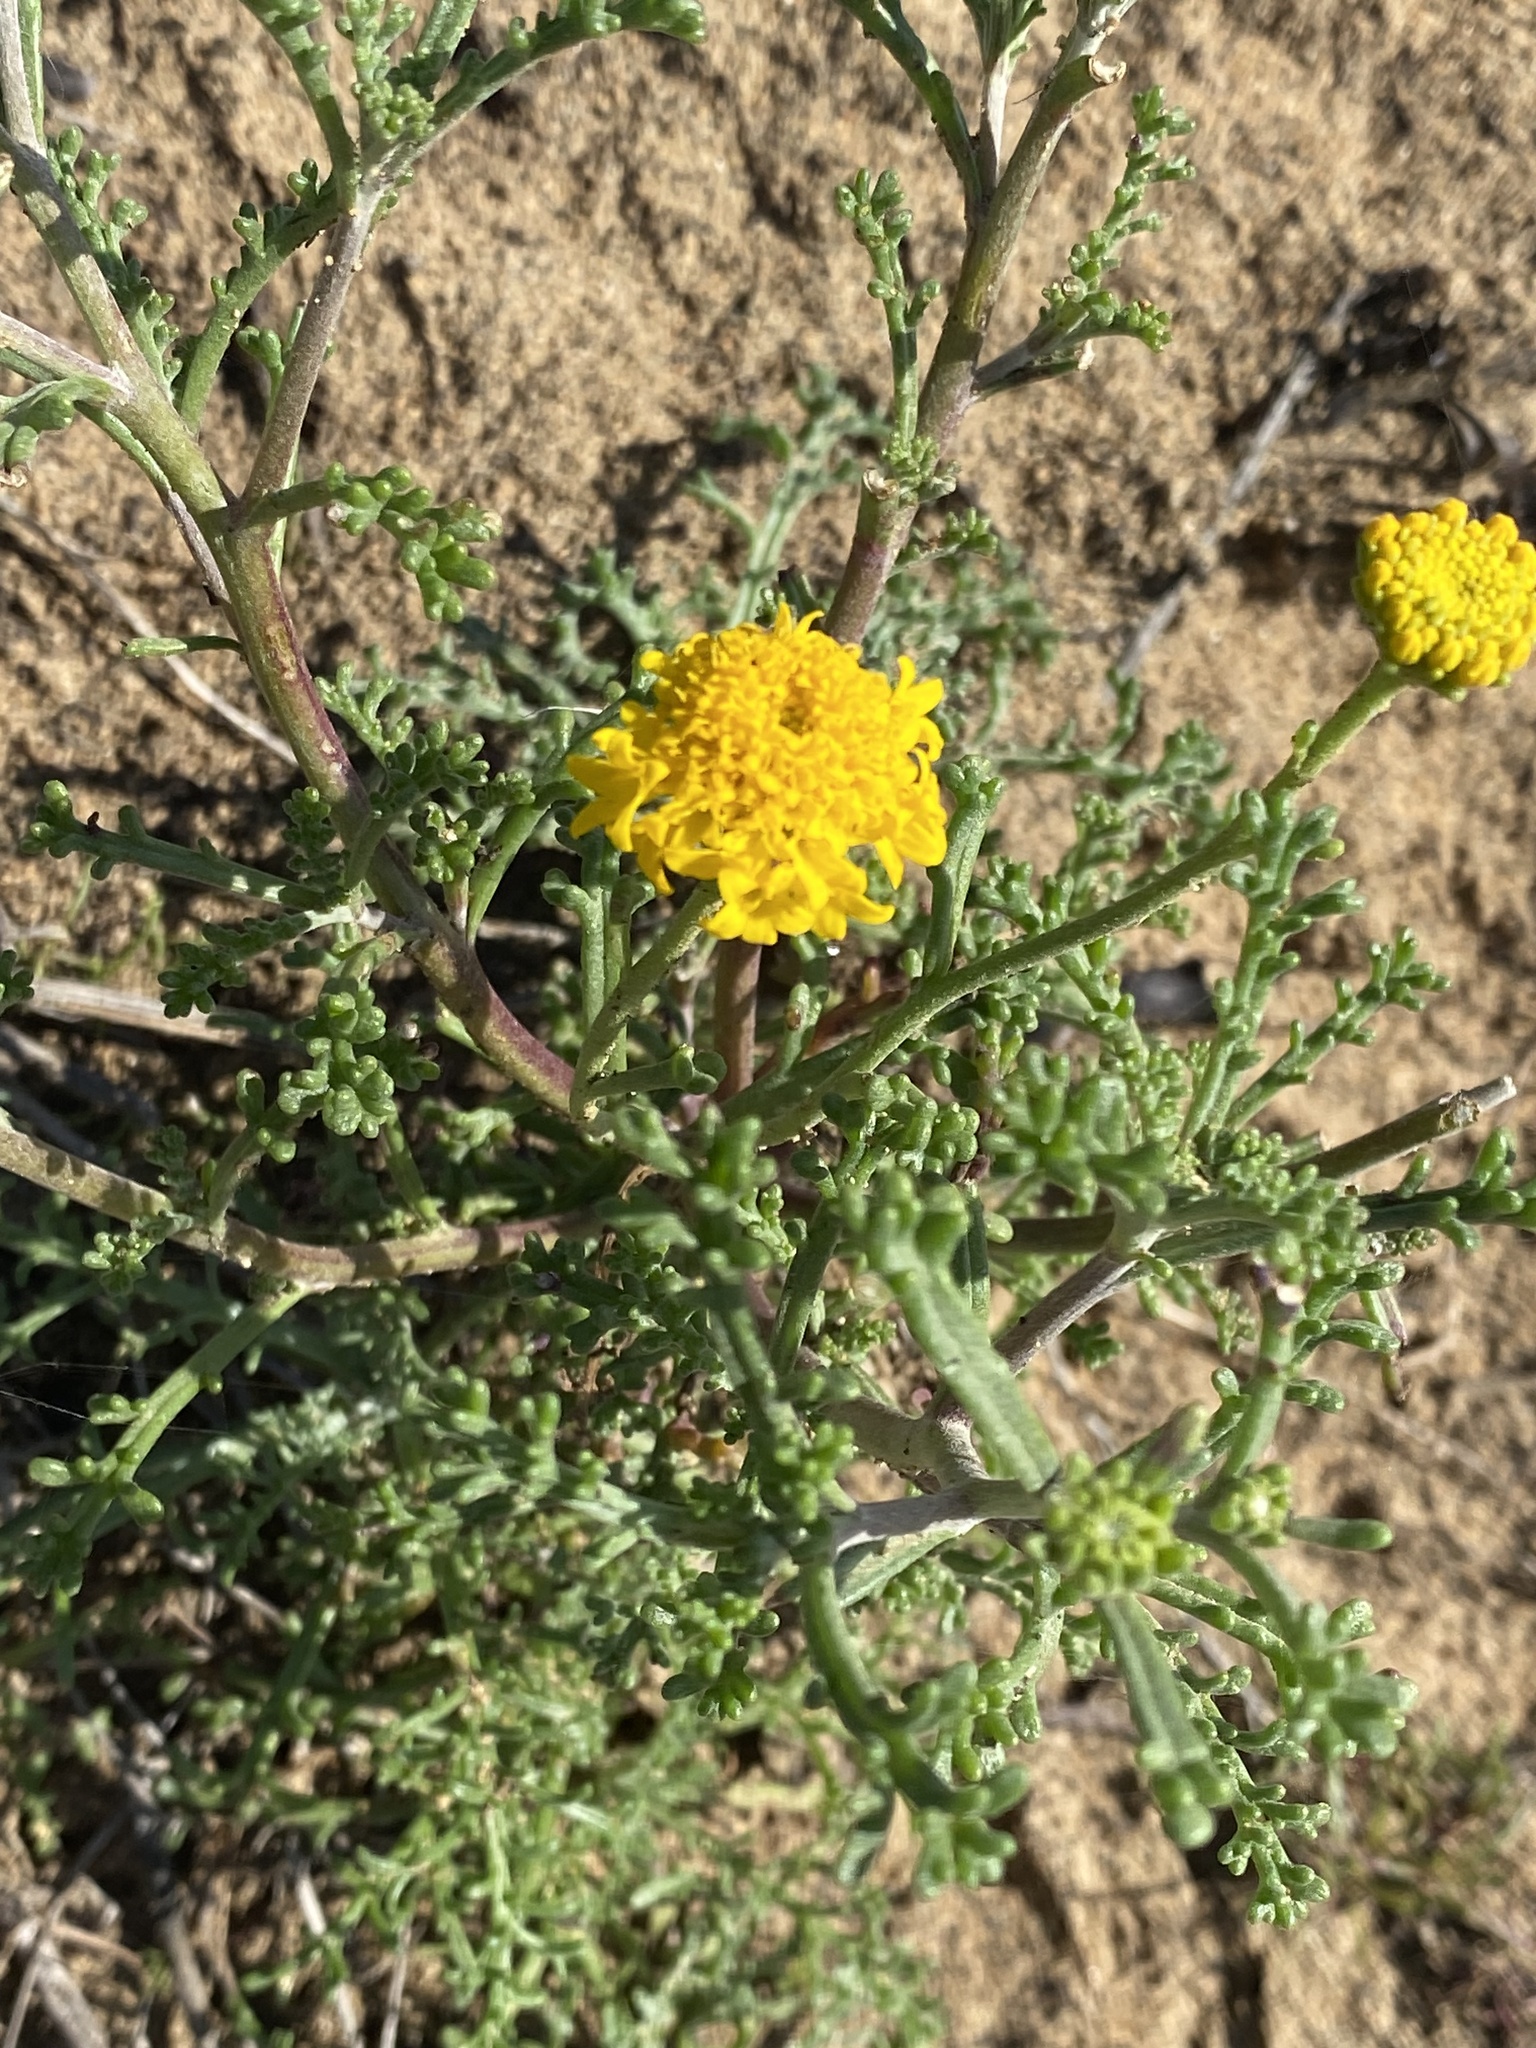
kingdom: Plantae
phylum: Tracheophyta
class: Magnoliopsida
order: Asterales
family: Asteraceae
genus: Chaenactis
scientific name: Chaenactis glabriuscula
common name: Yellow pincushion
